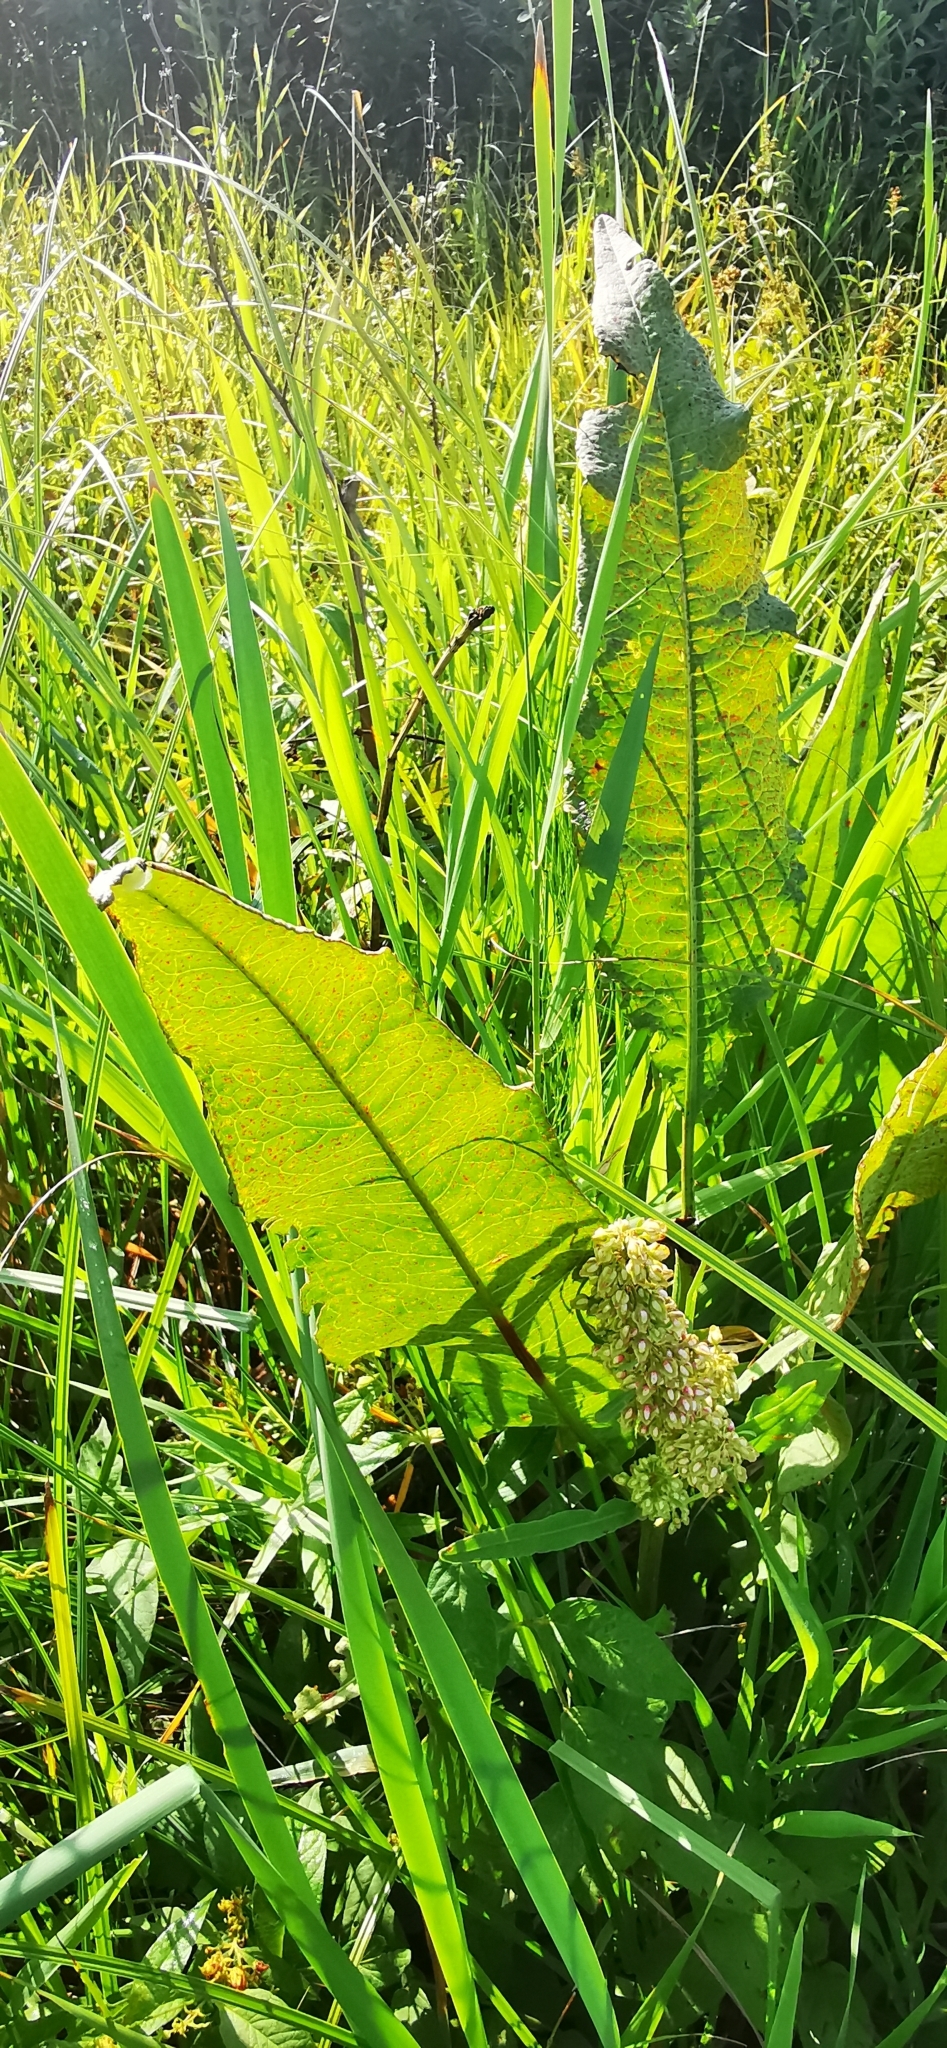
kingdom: Plantae
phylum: Tracheophyta
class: Magnoliopsida
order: Caryophyllales
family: Polygonaceae
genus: Rumex
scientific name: Rumex hydrolapathum
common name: Water dock
